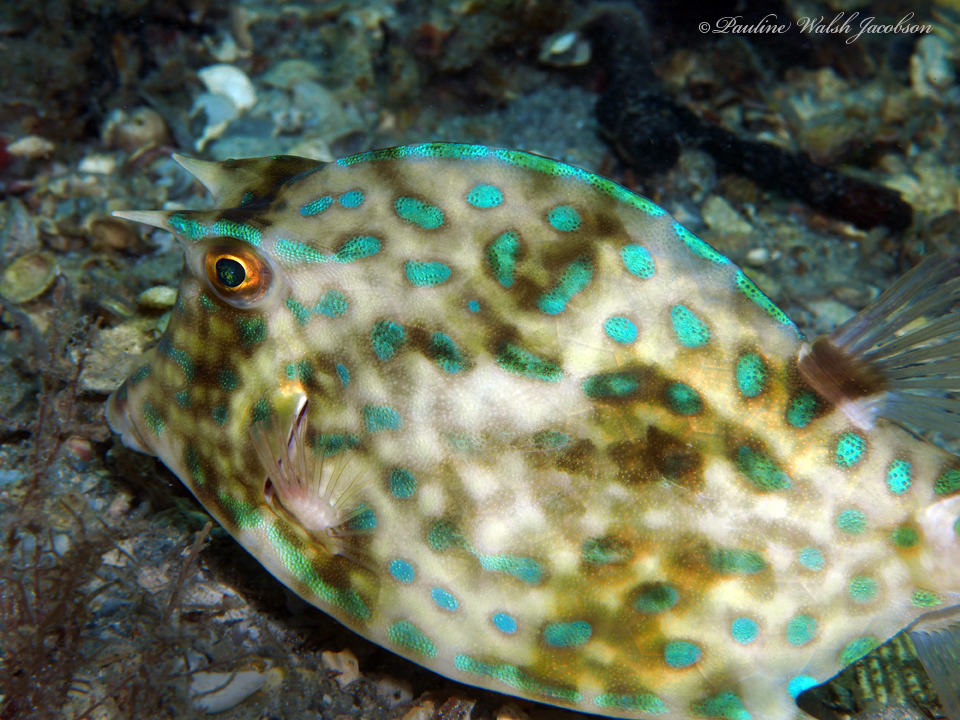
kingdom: Animalia
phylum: Chordata
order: Tetraodontiformes
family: Ostraciidae
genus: Acanthostracion
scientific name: Acanthostracion quadricornis
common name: Scrawled cowfish
